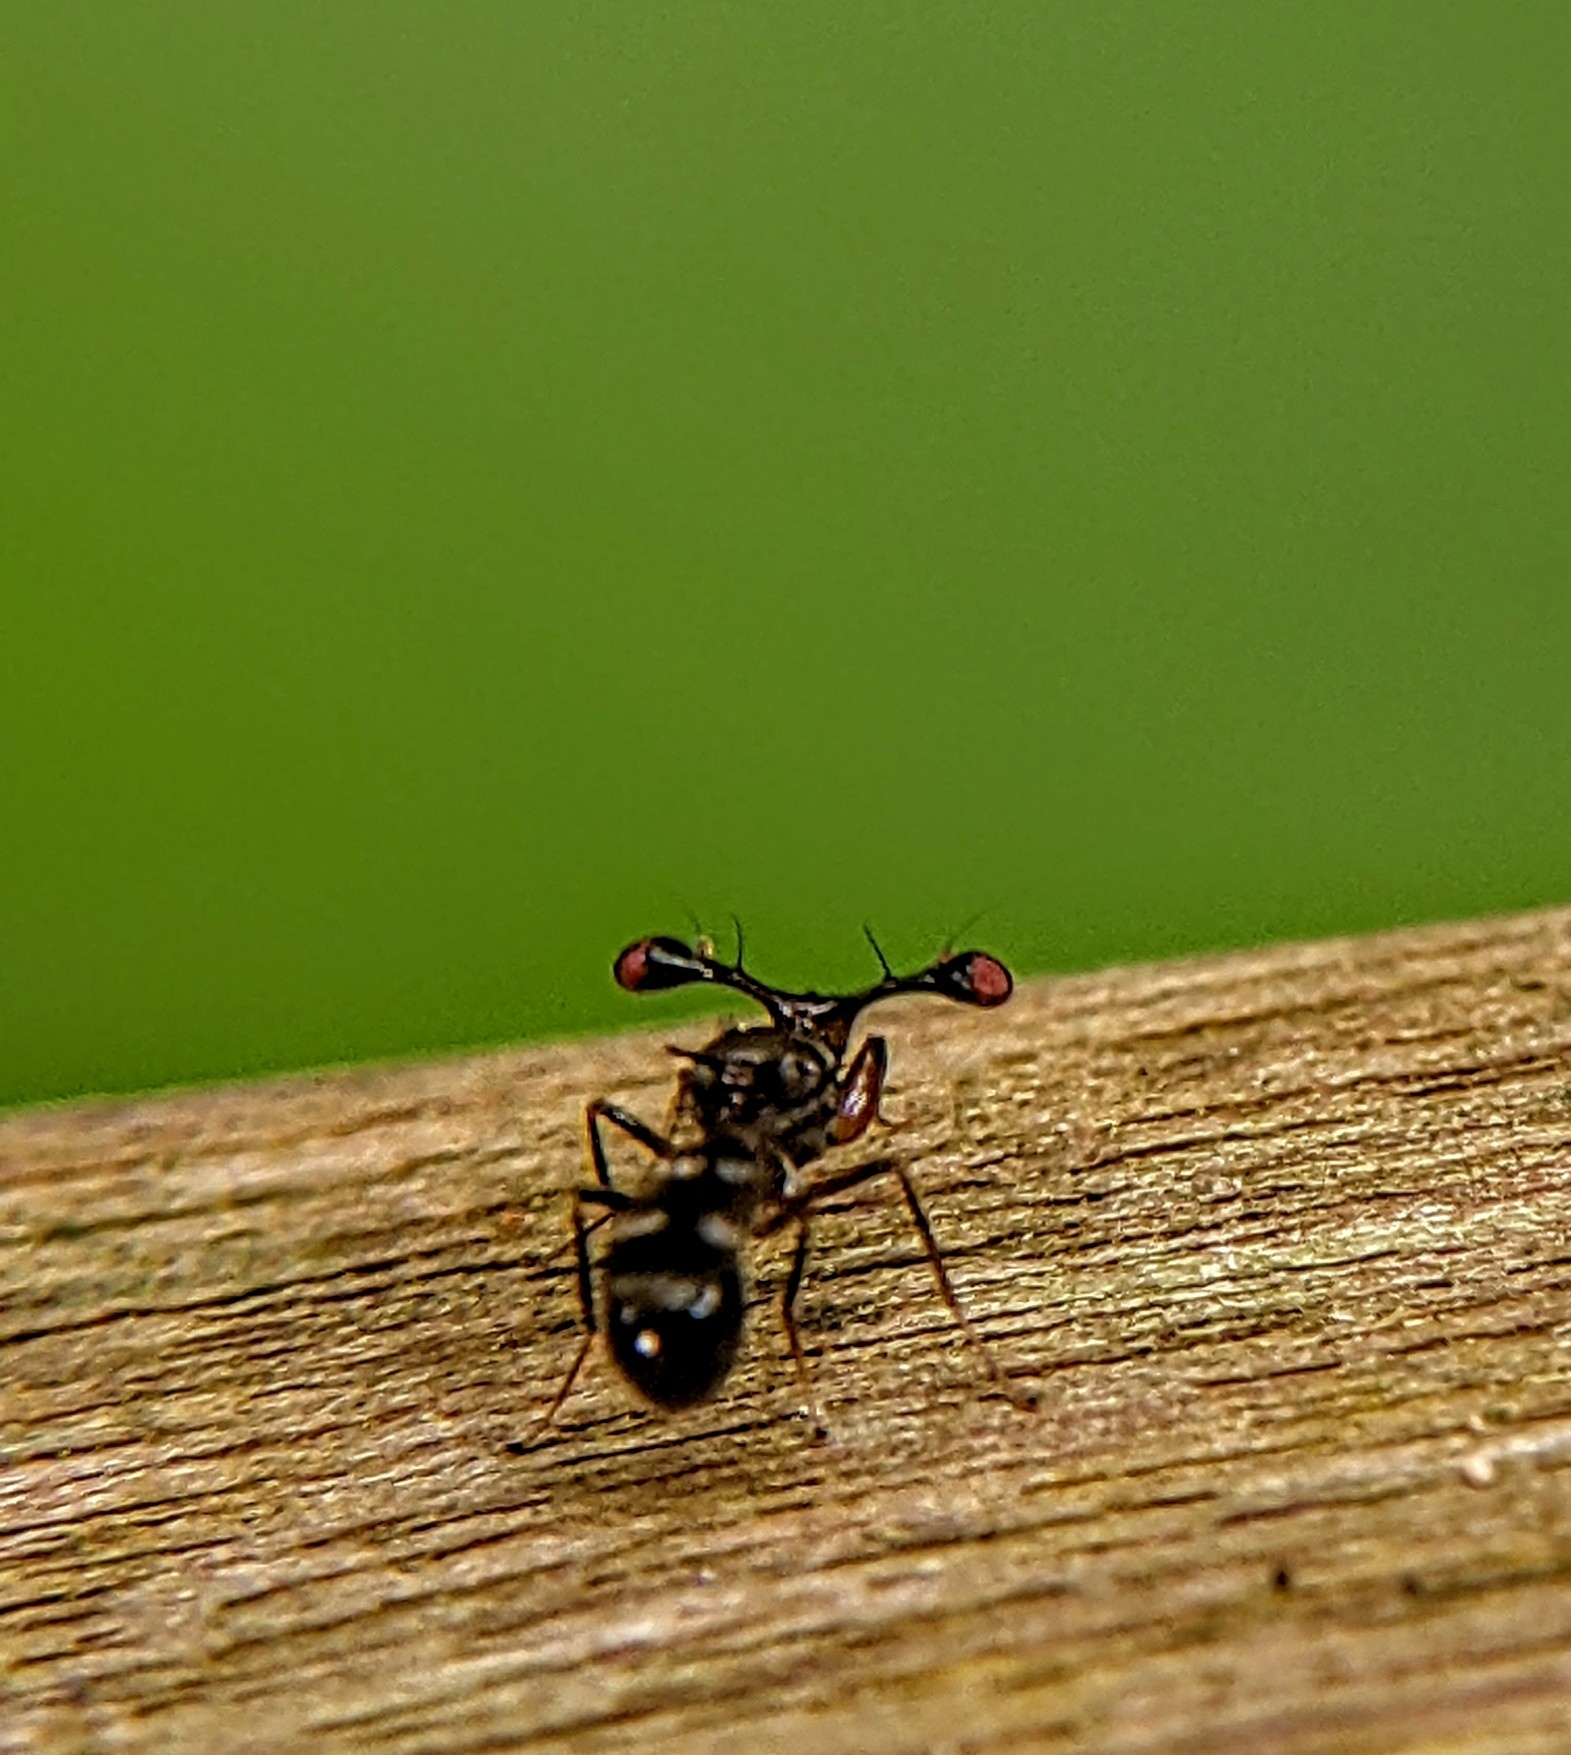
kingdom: Animalia
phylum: Arthropoda
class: Insecta
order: Diptera
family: Diopsidae
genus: Megalabops
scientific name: Megalabops
